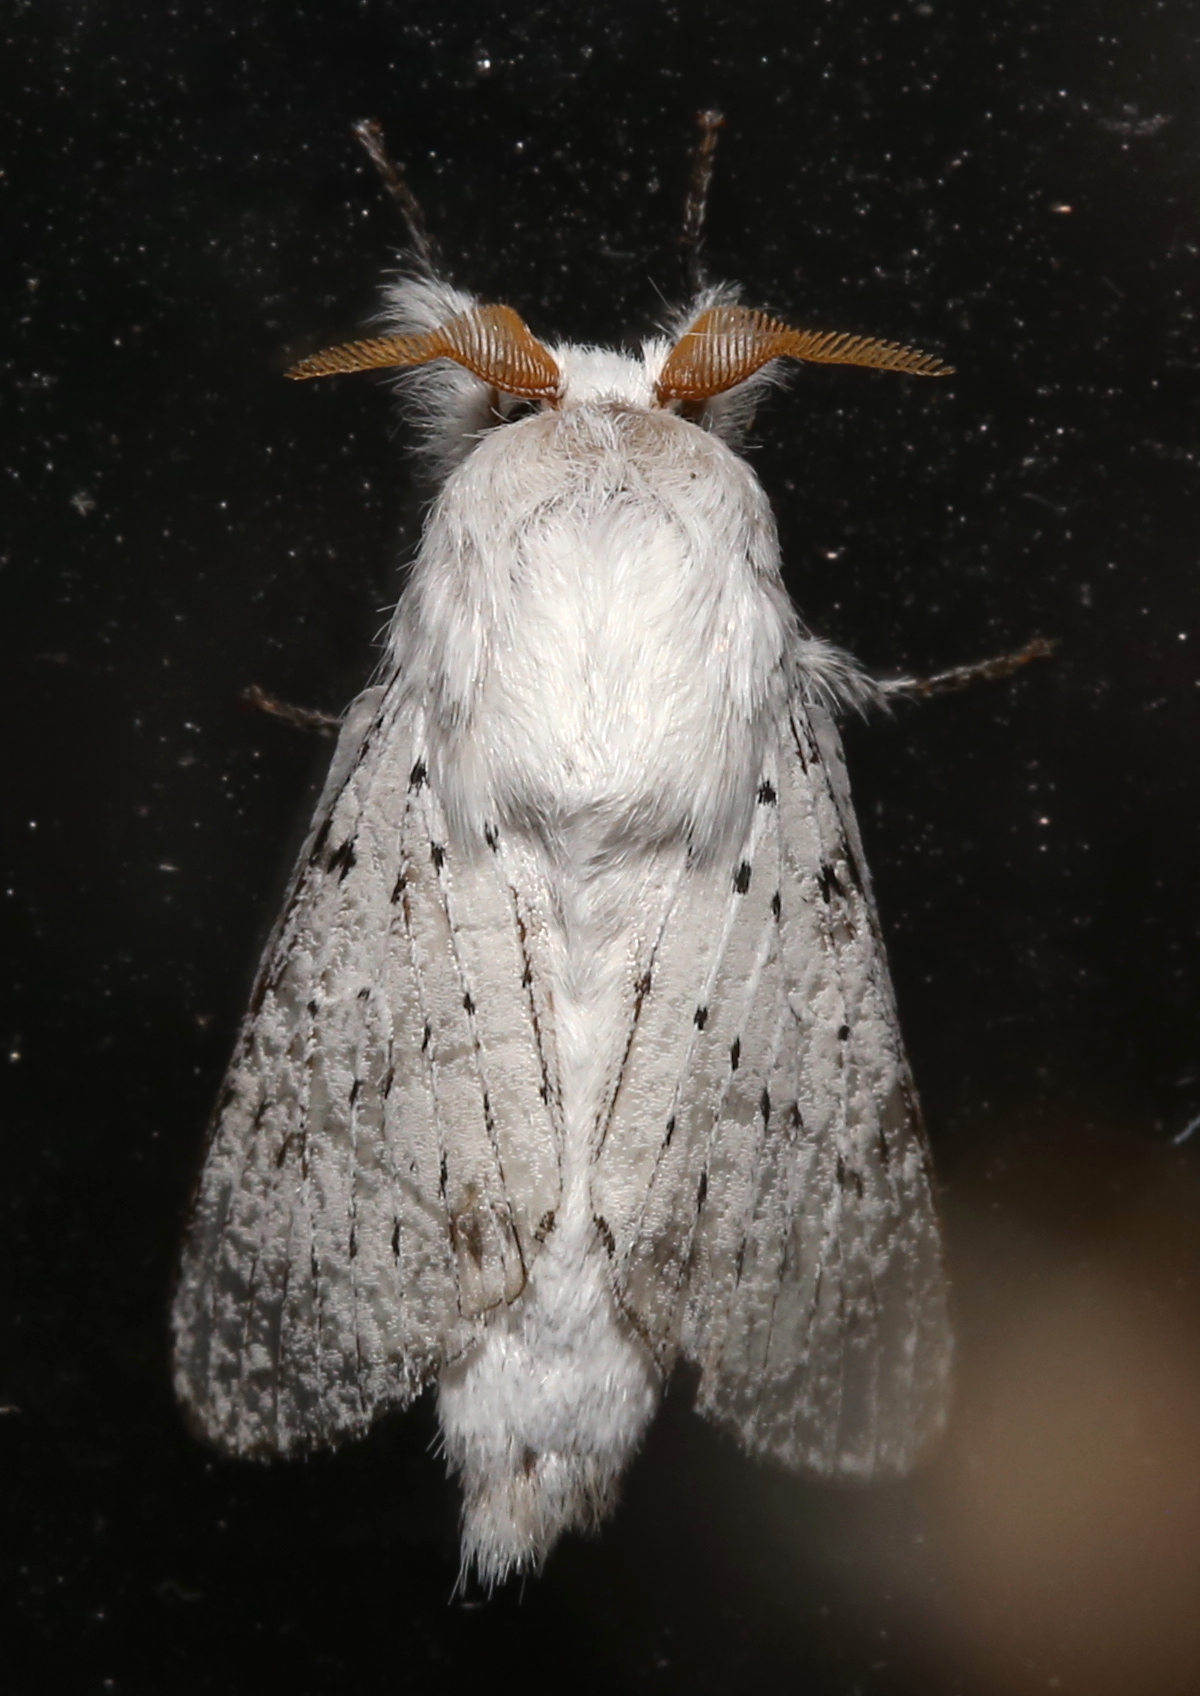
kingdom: Animalia
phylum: Arthropoda
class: Insecta
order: Lepidoptera
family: Lasiocampidae
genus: Artace
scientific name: Artace cribrarius
